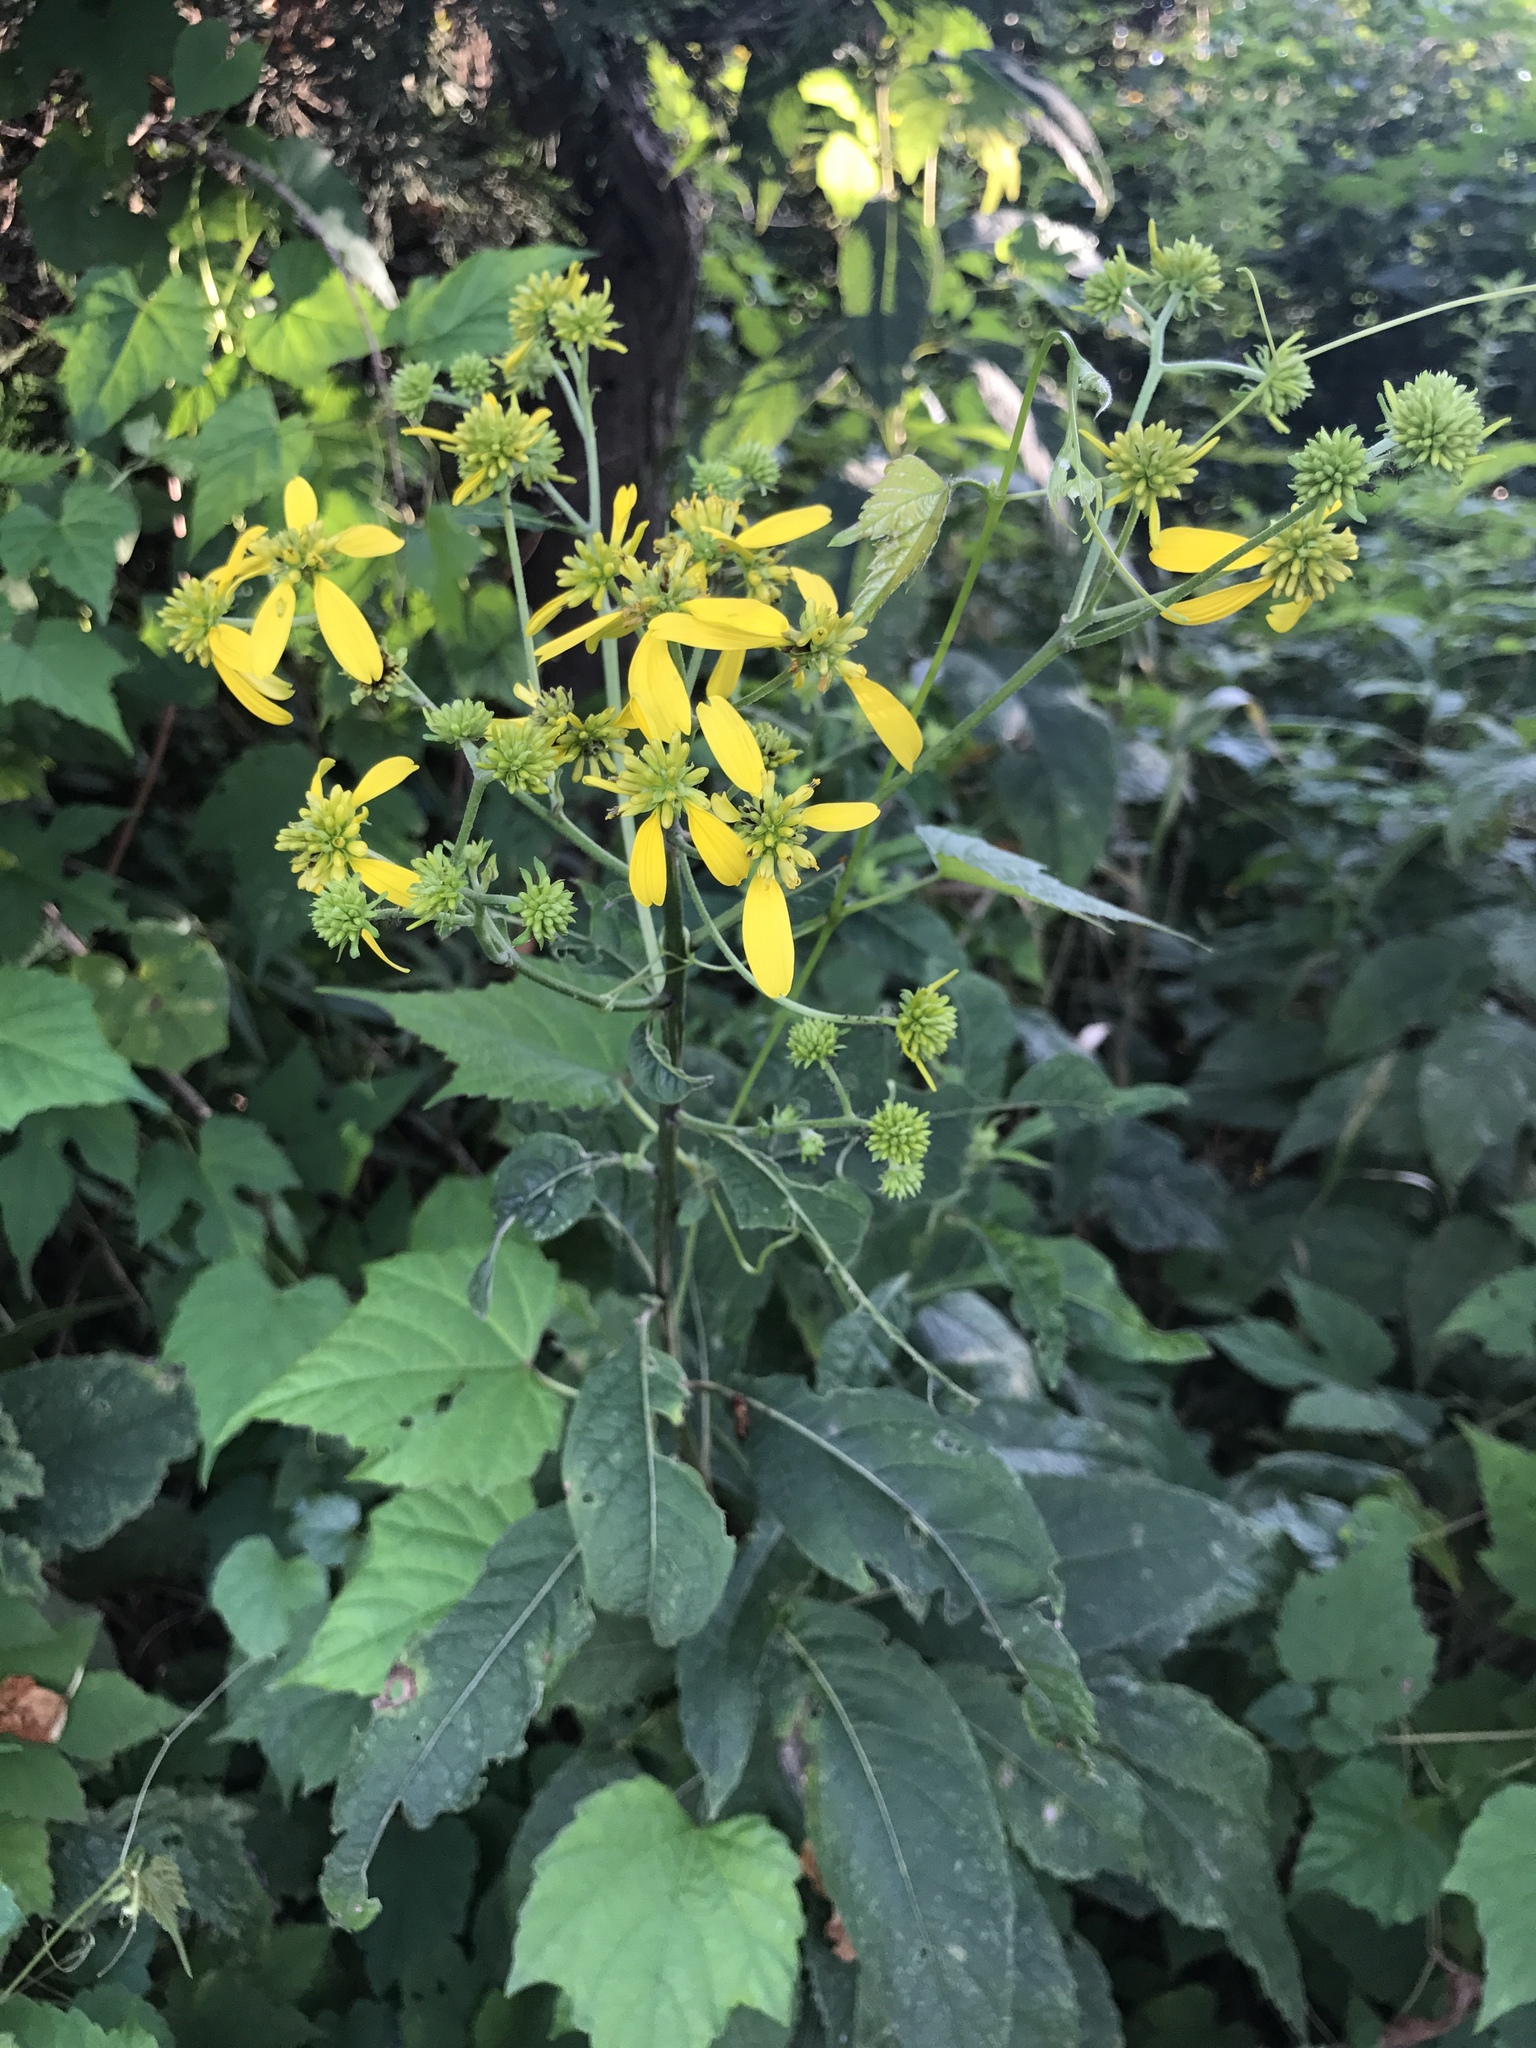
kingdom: Plantae
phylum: Tracheophyta
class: Magnoliopsida
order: Asterales
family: Asteraceae
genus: Verbesina
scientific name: Verbesina alternifolia
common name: Wingstem
